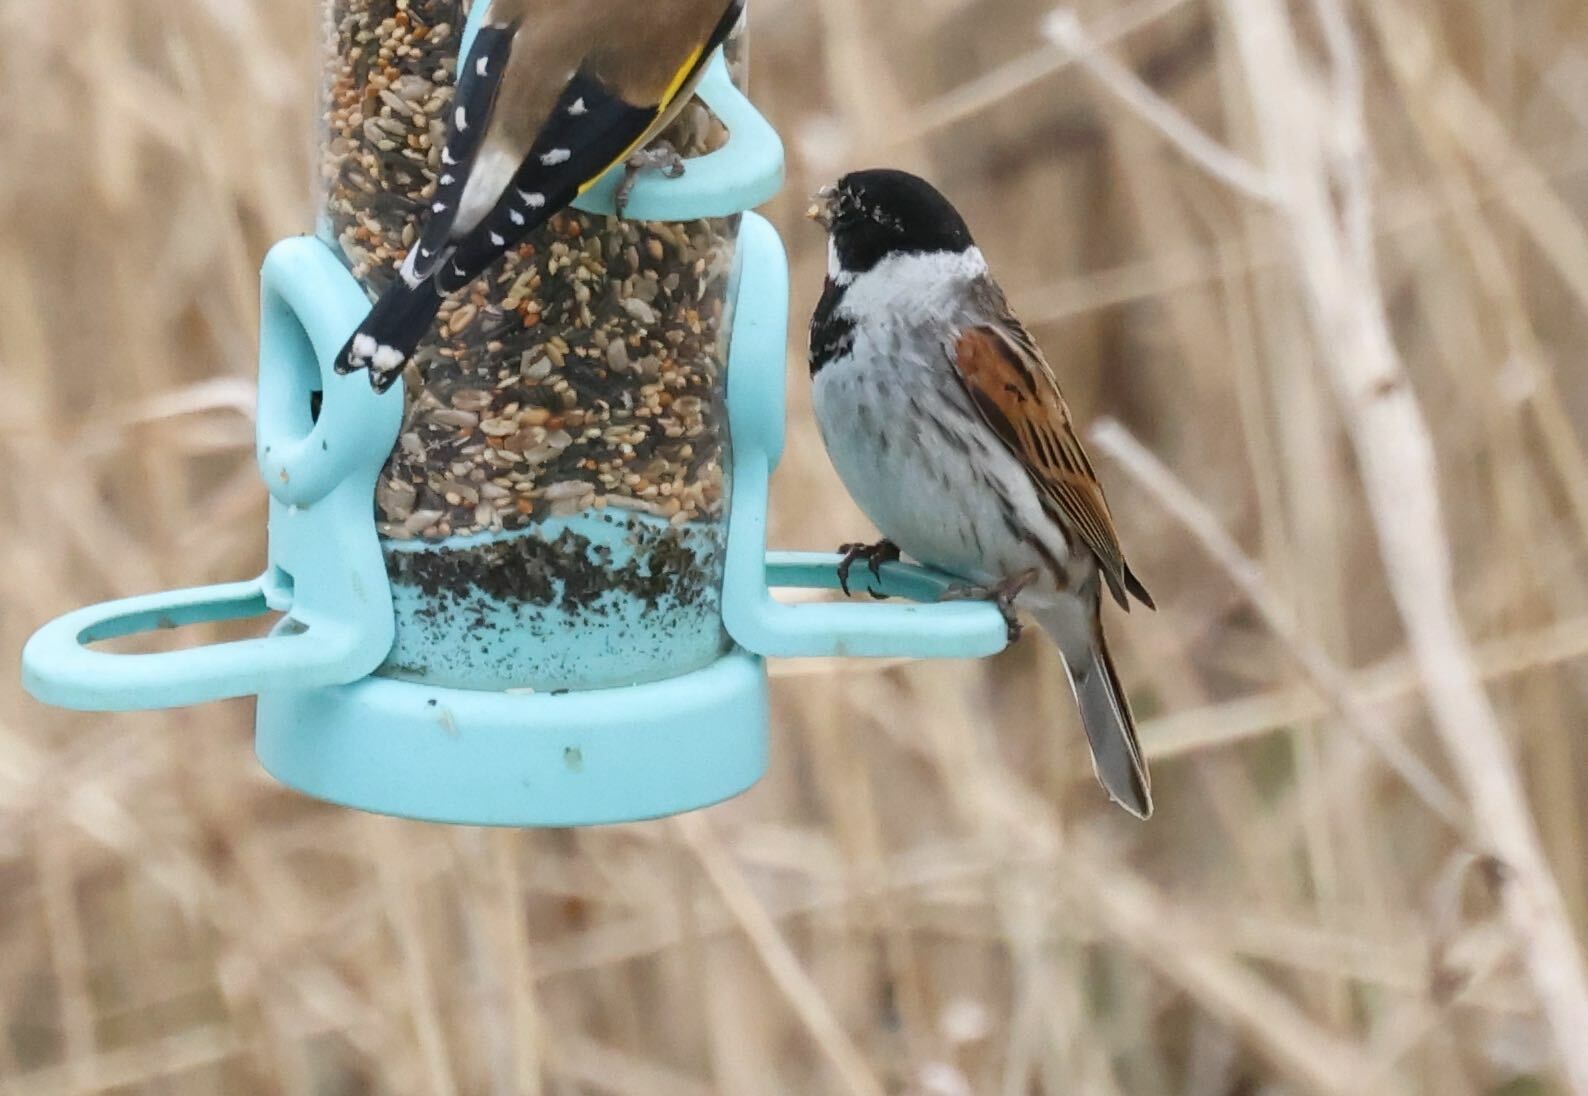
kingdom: Animalia
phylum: Chordata
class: Aves
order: Passeriformes
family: Emberizidae
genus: Emberiza
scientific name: Emberiza schoeniclus
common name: Reed bunting
